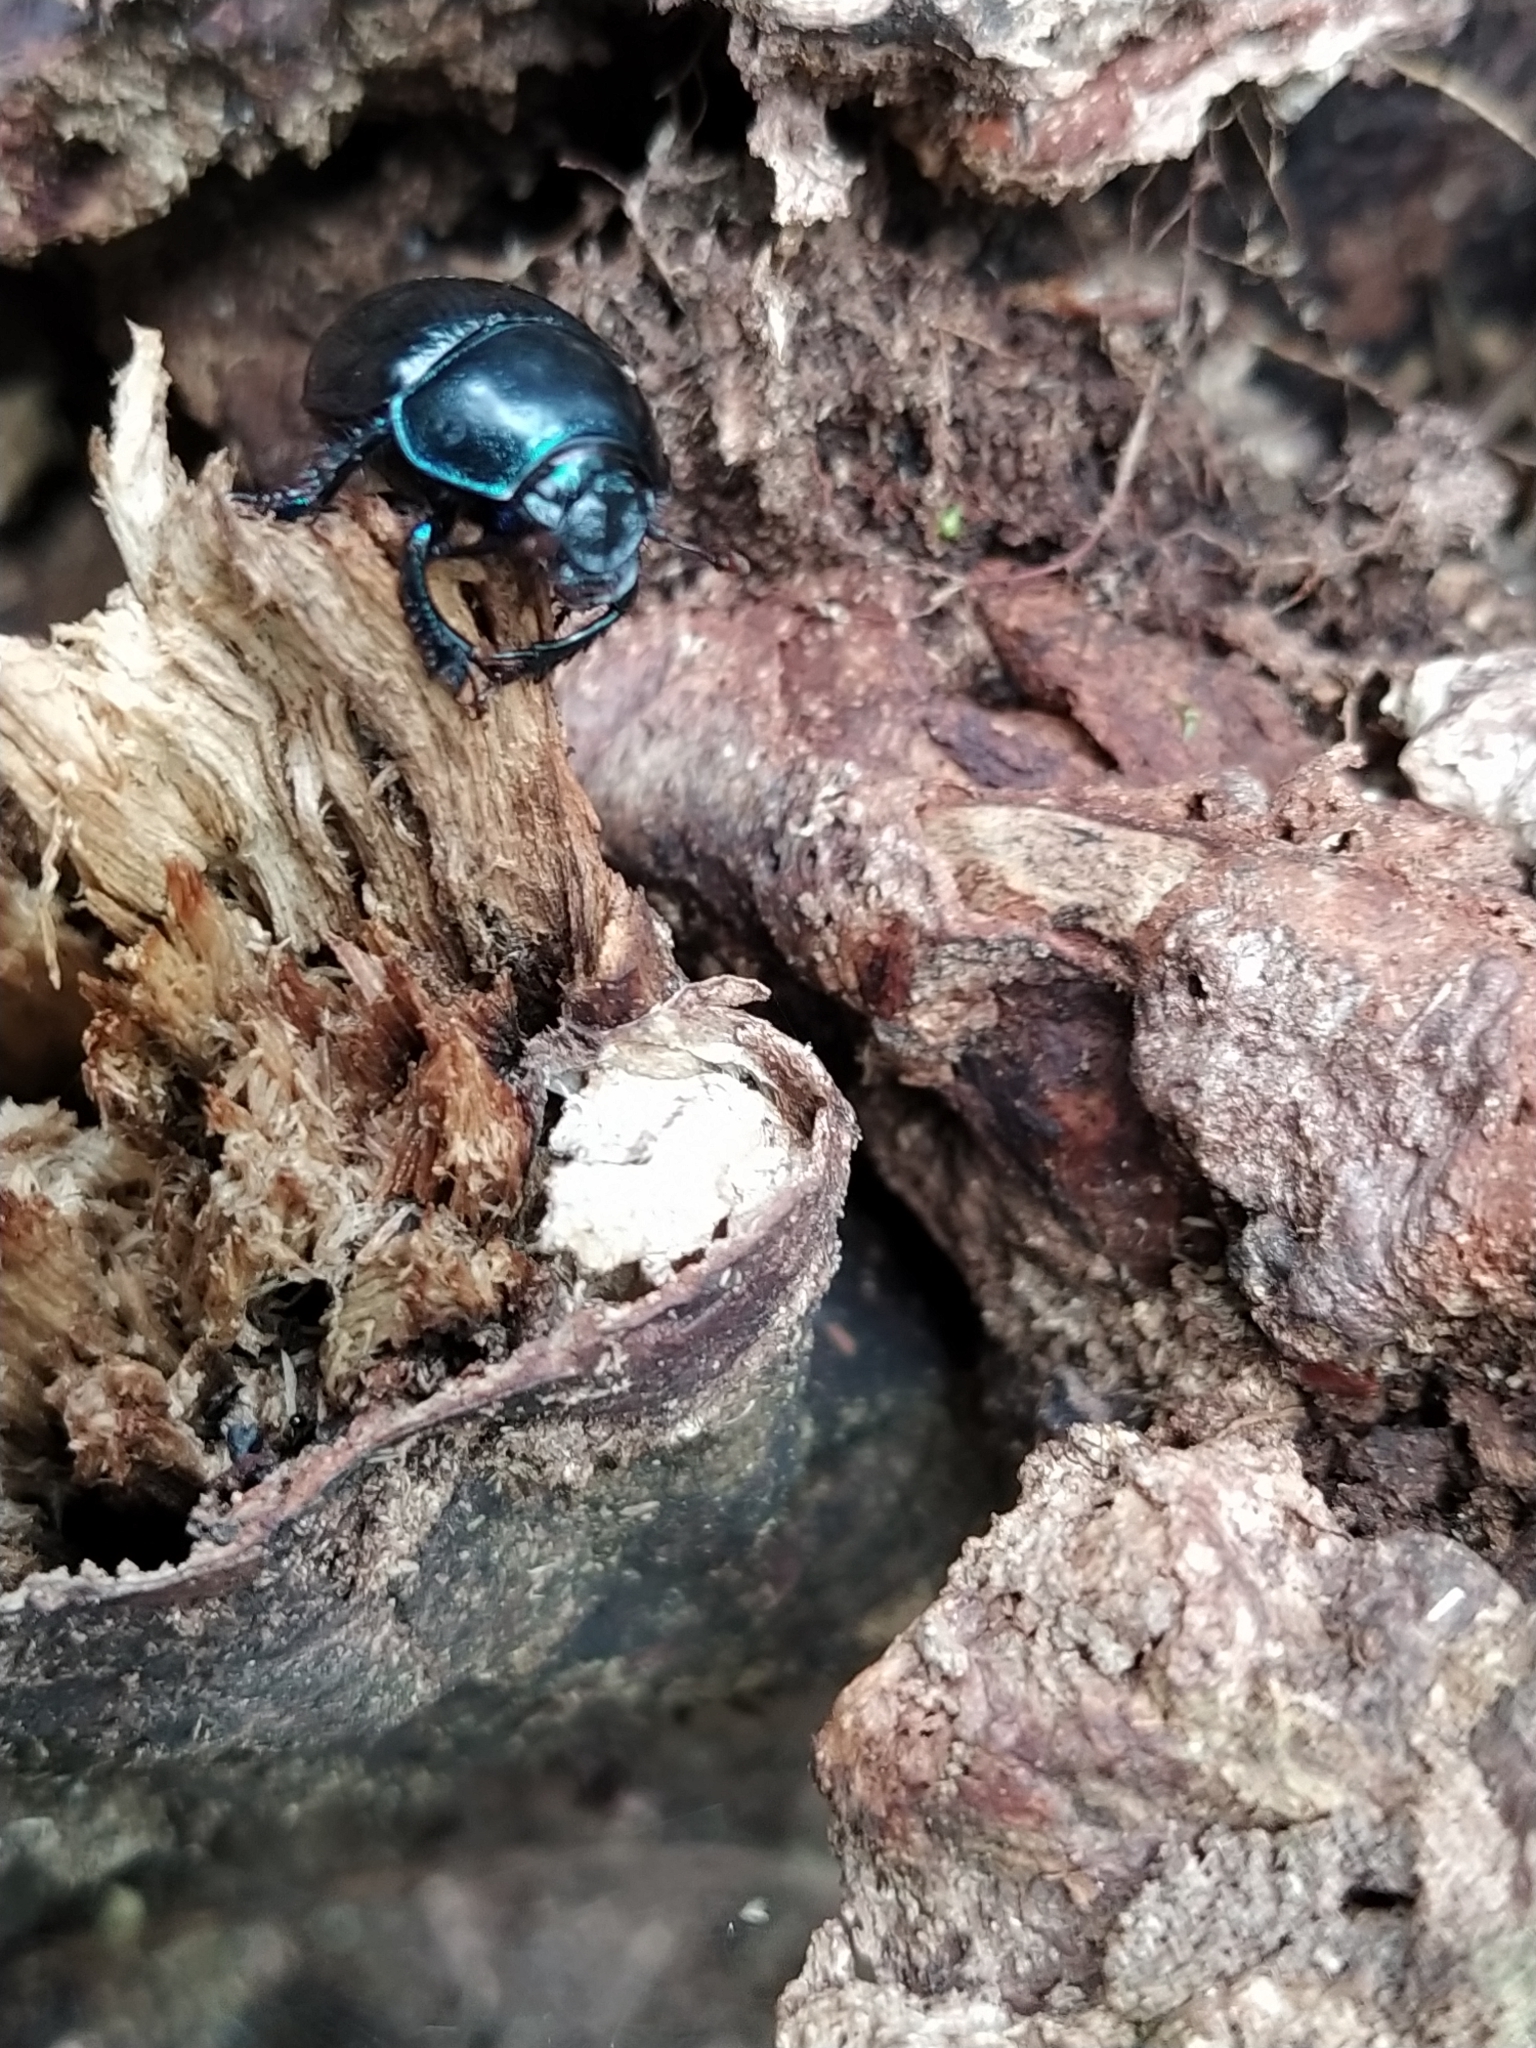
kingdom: Animalia
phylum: Arthropoda
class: Insecta
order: Coleoptera
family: Geotrupidae
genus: Anoplotrupes
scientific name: Anoplotrupes stercorosus
